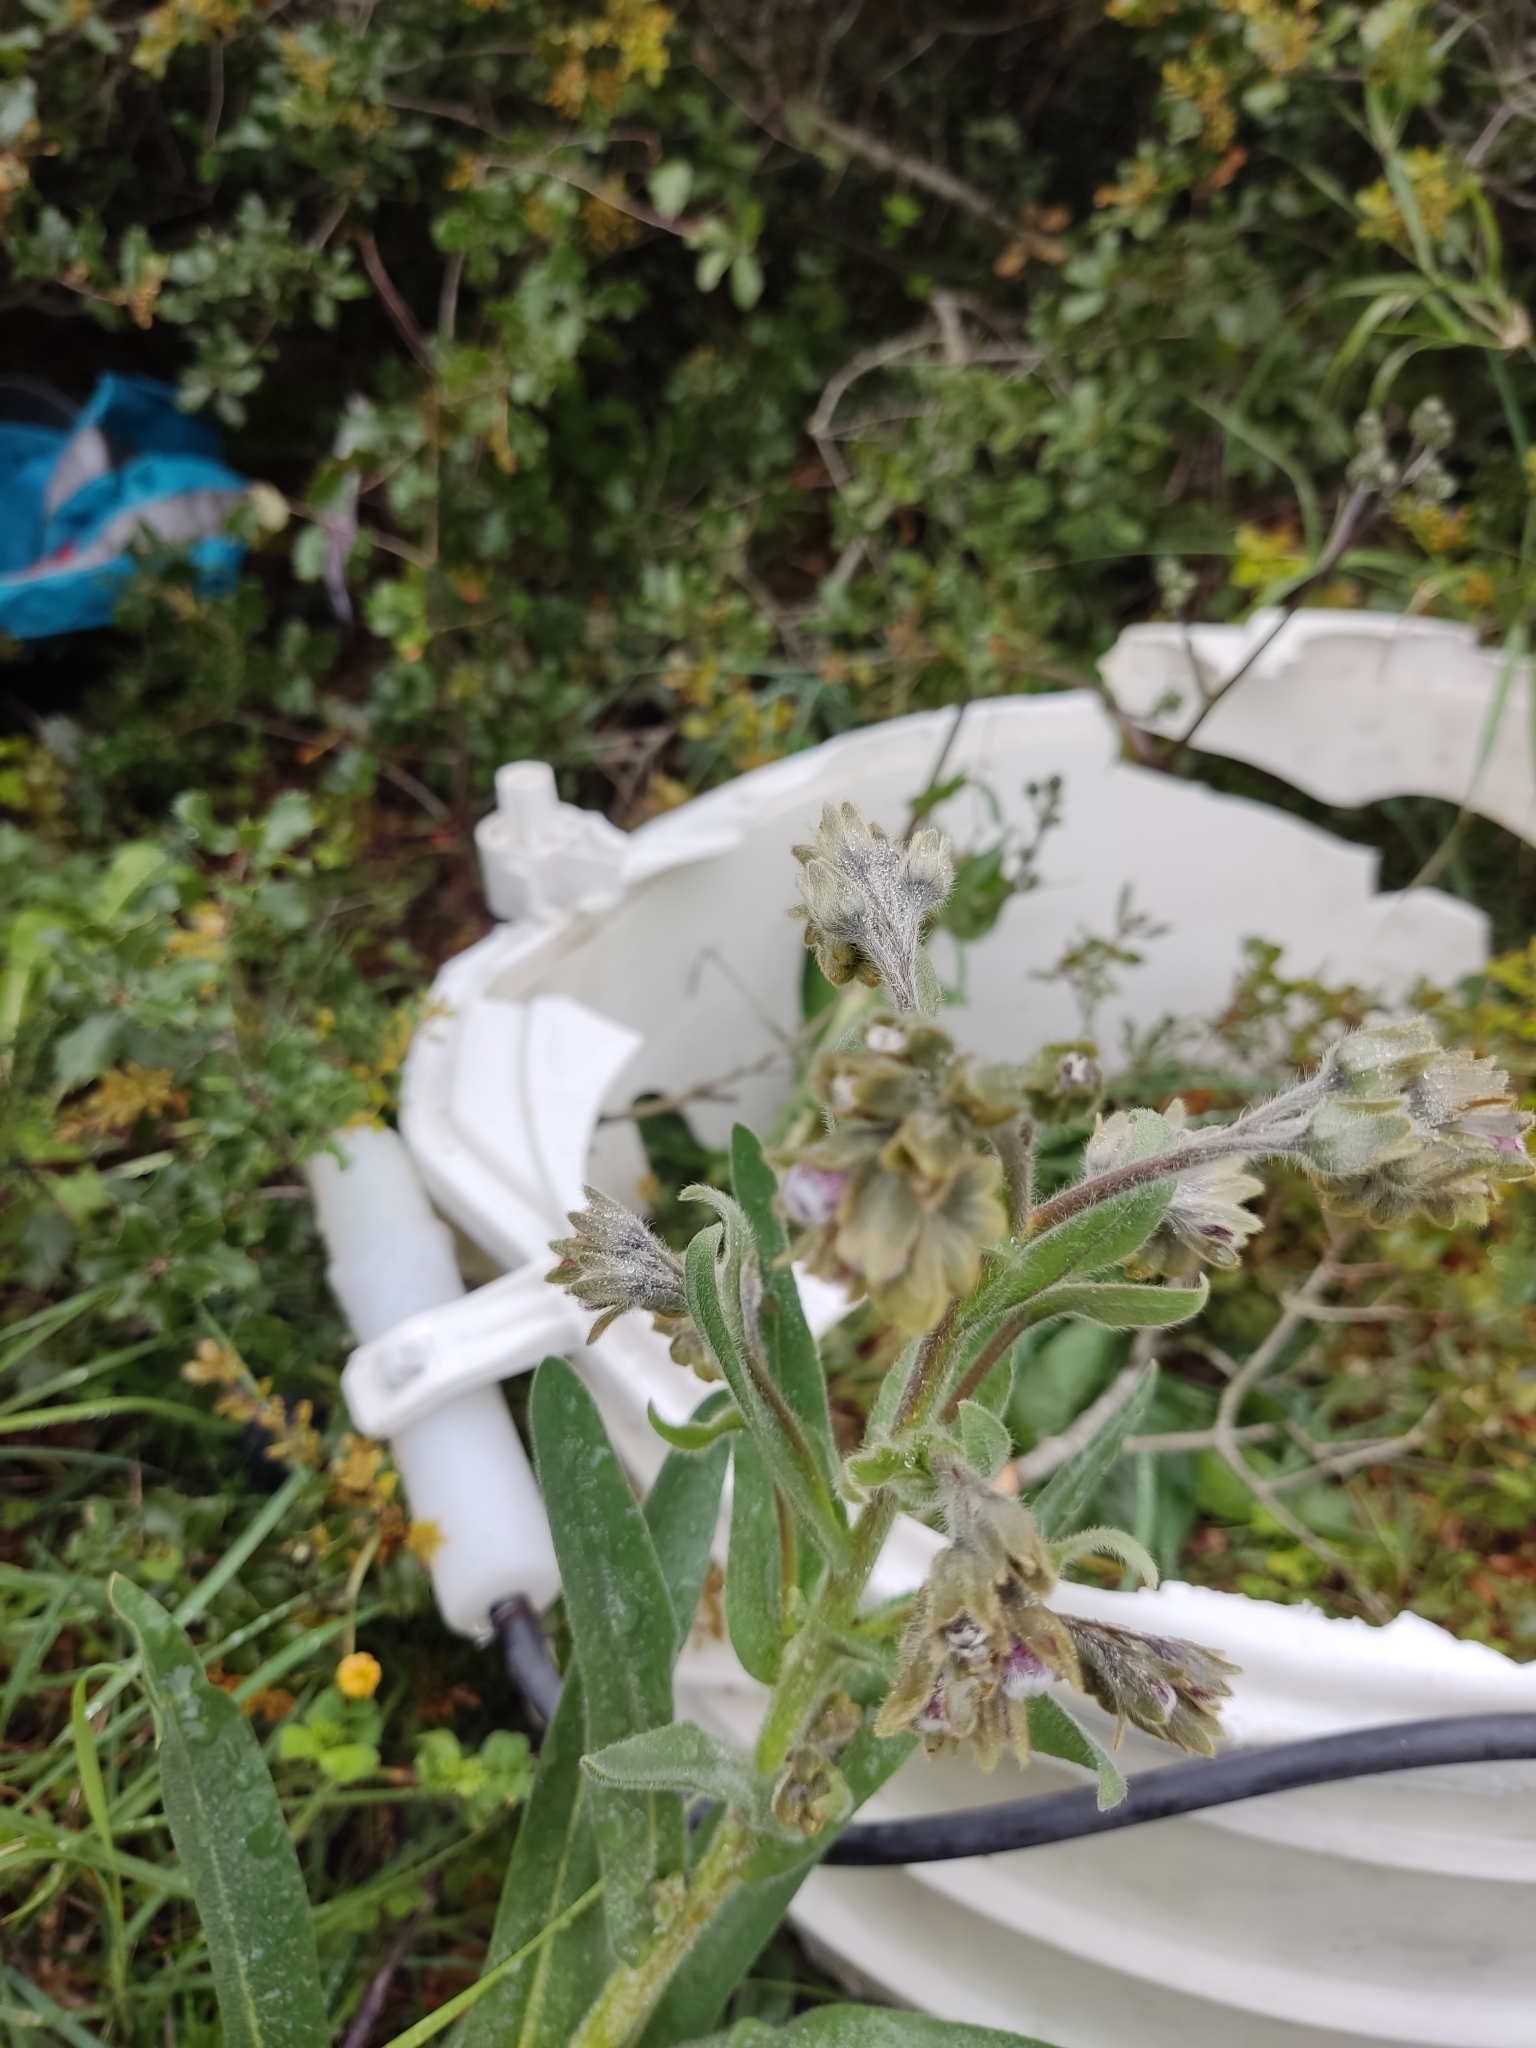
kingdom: Plantae
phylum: Tracheophyta
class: Magnoliopsida
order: Boraginales
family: Boraginaceae
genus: Cynoglossum
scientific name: Cynoglossum clandestinum
